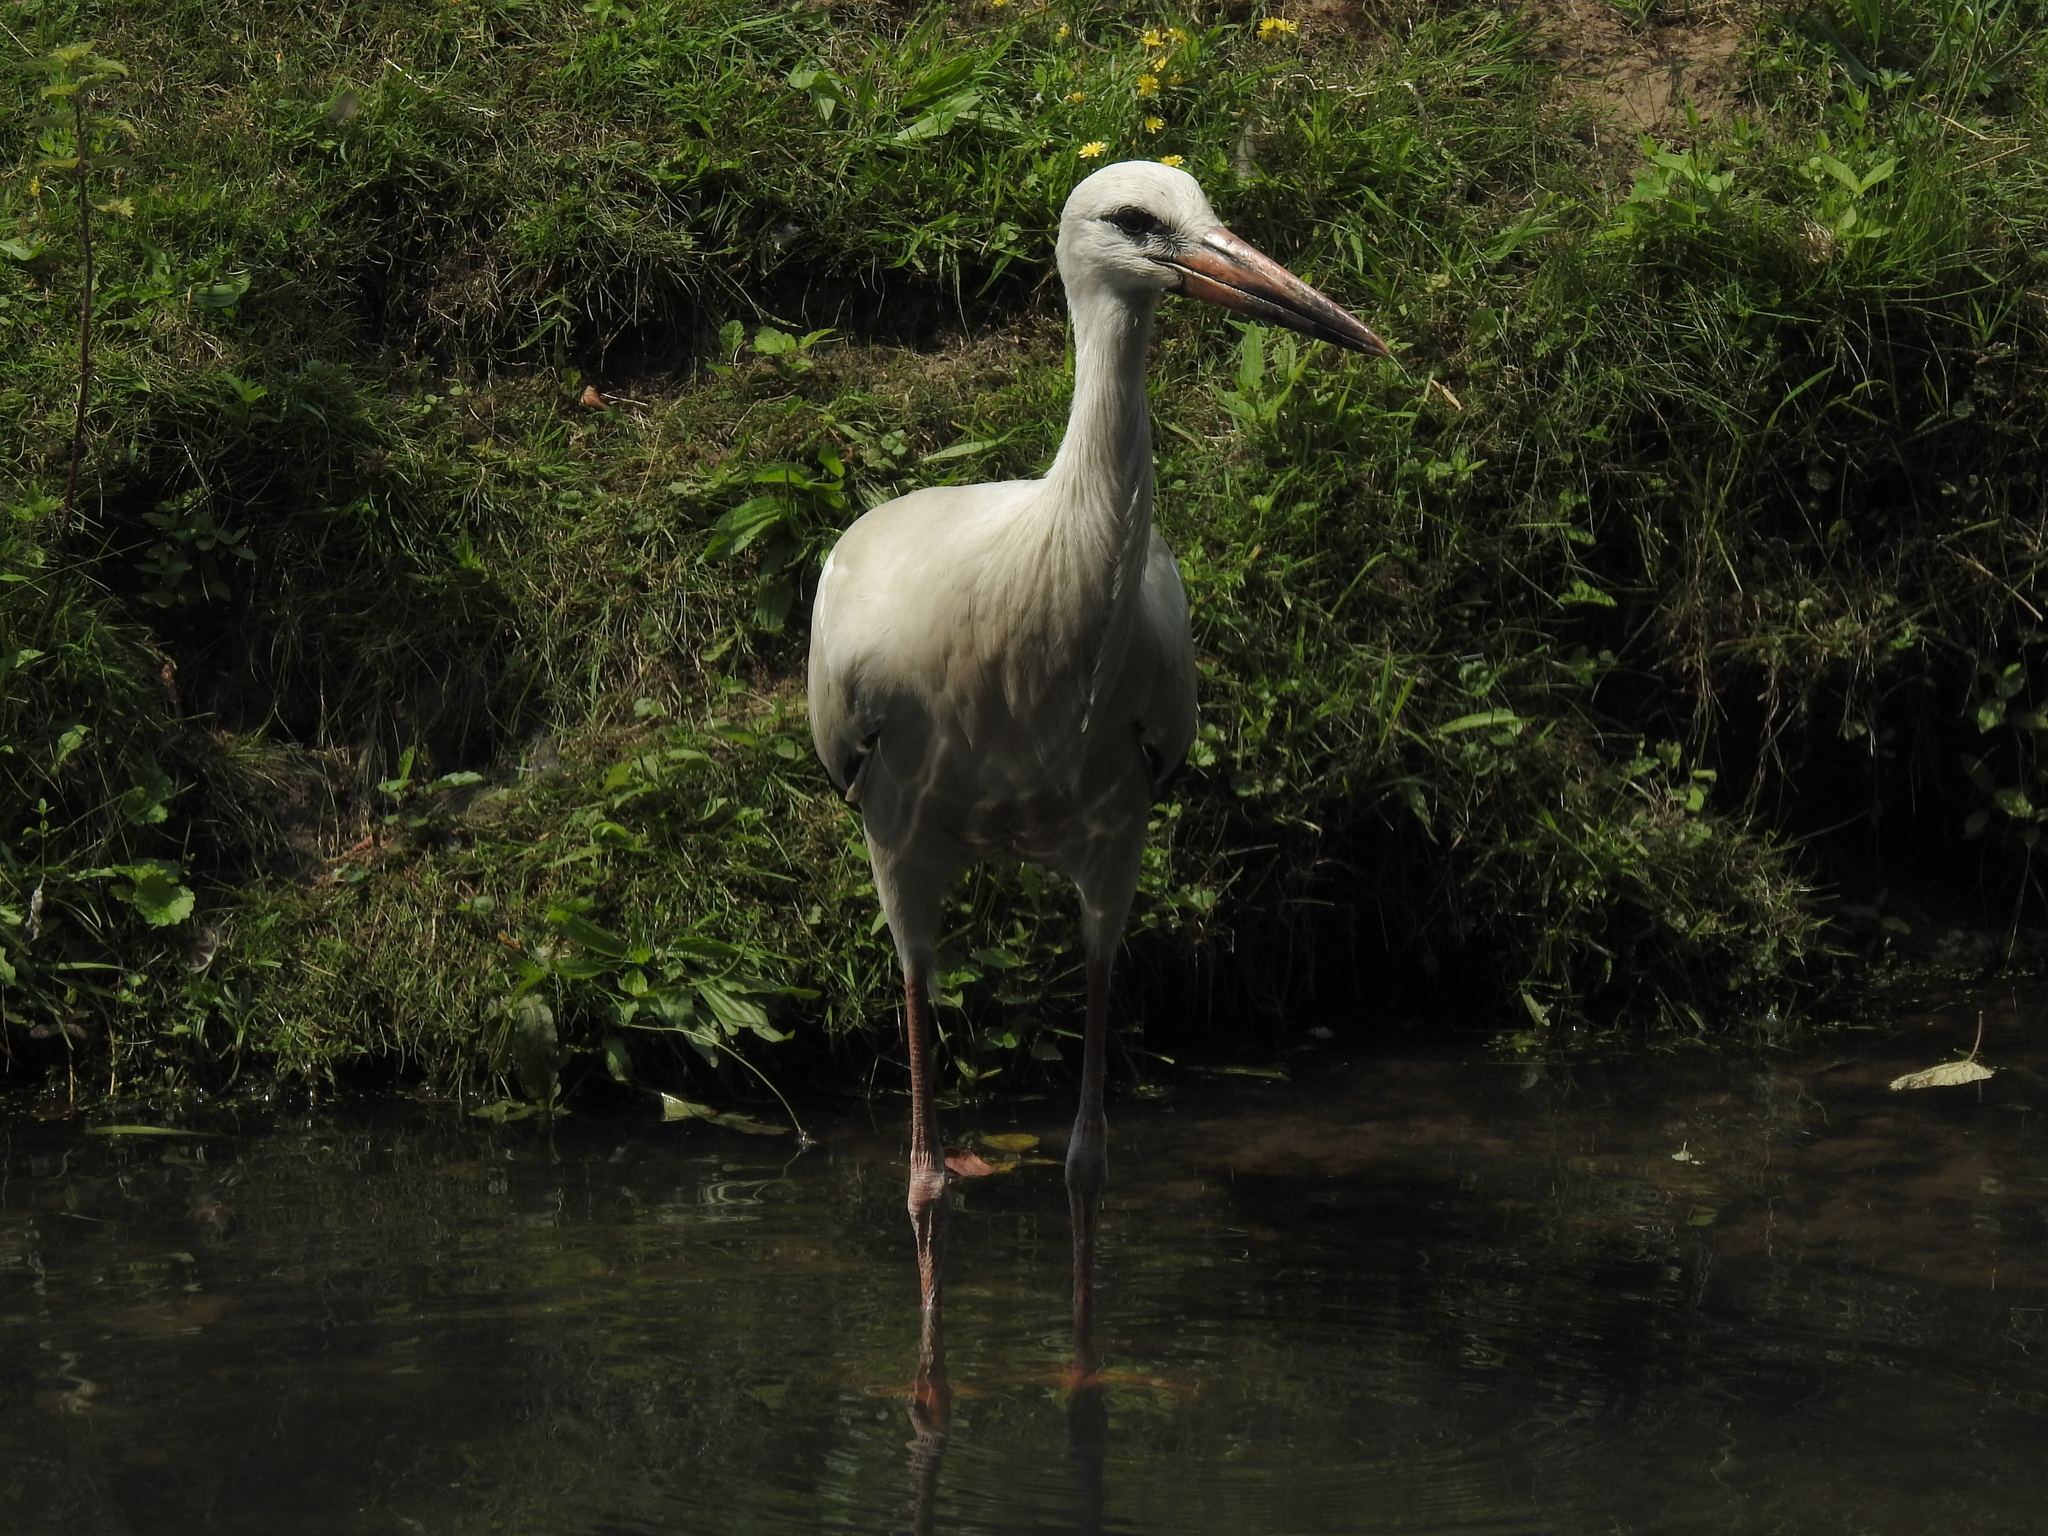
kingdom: Animalia
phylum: Chordata
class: Aves
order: Ciconiiformes
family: Ciconiidae
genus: Ciconia
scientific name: Ciconia ciconia
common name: White stork
